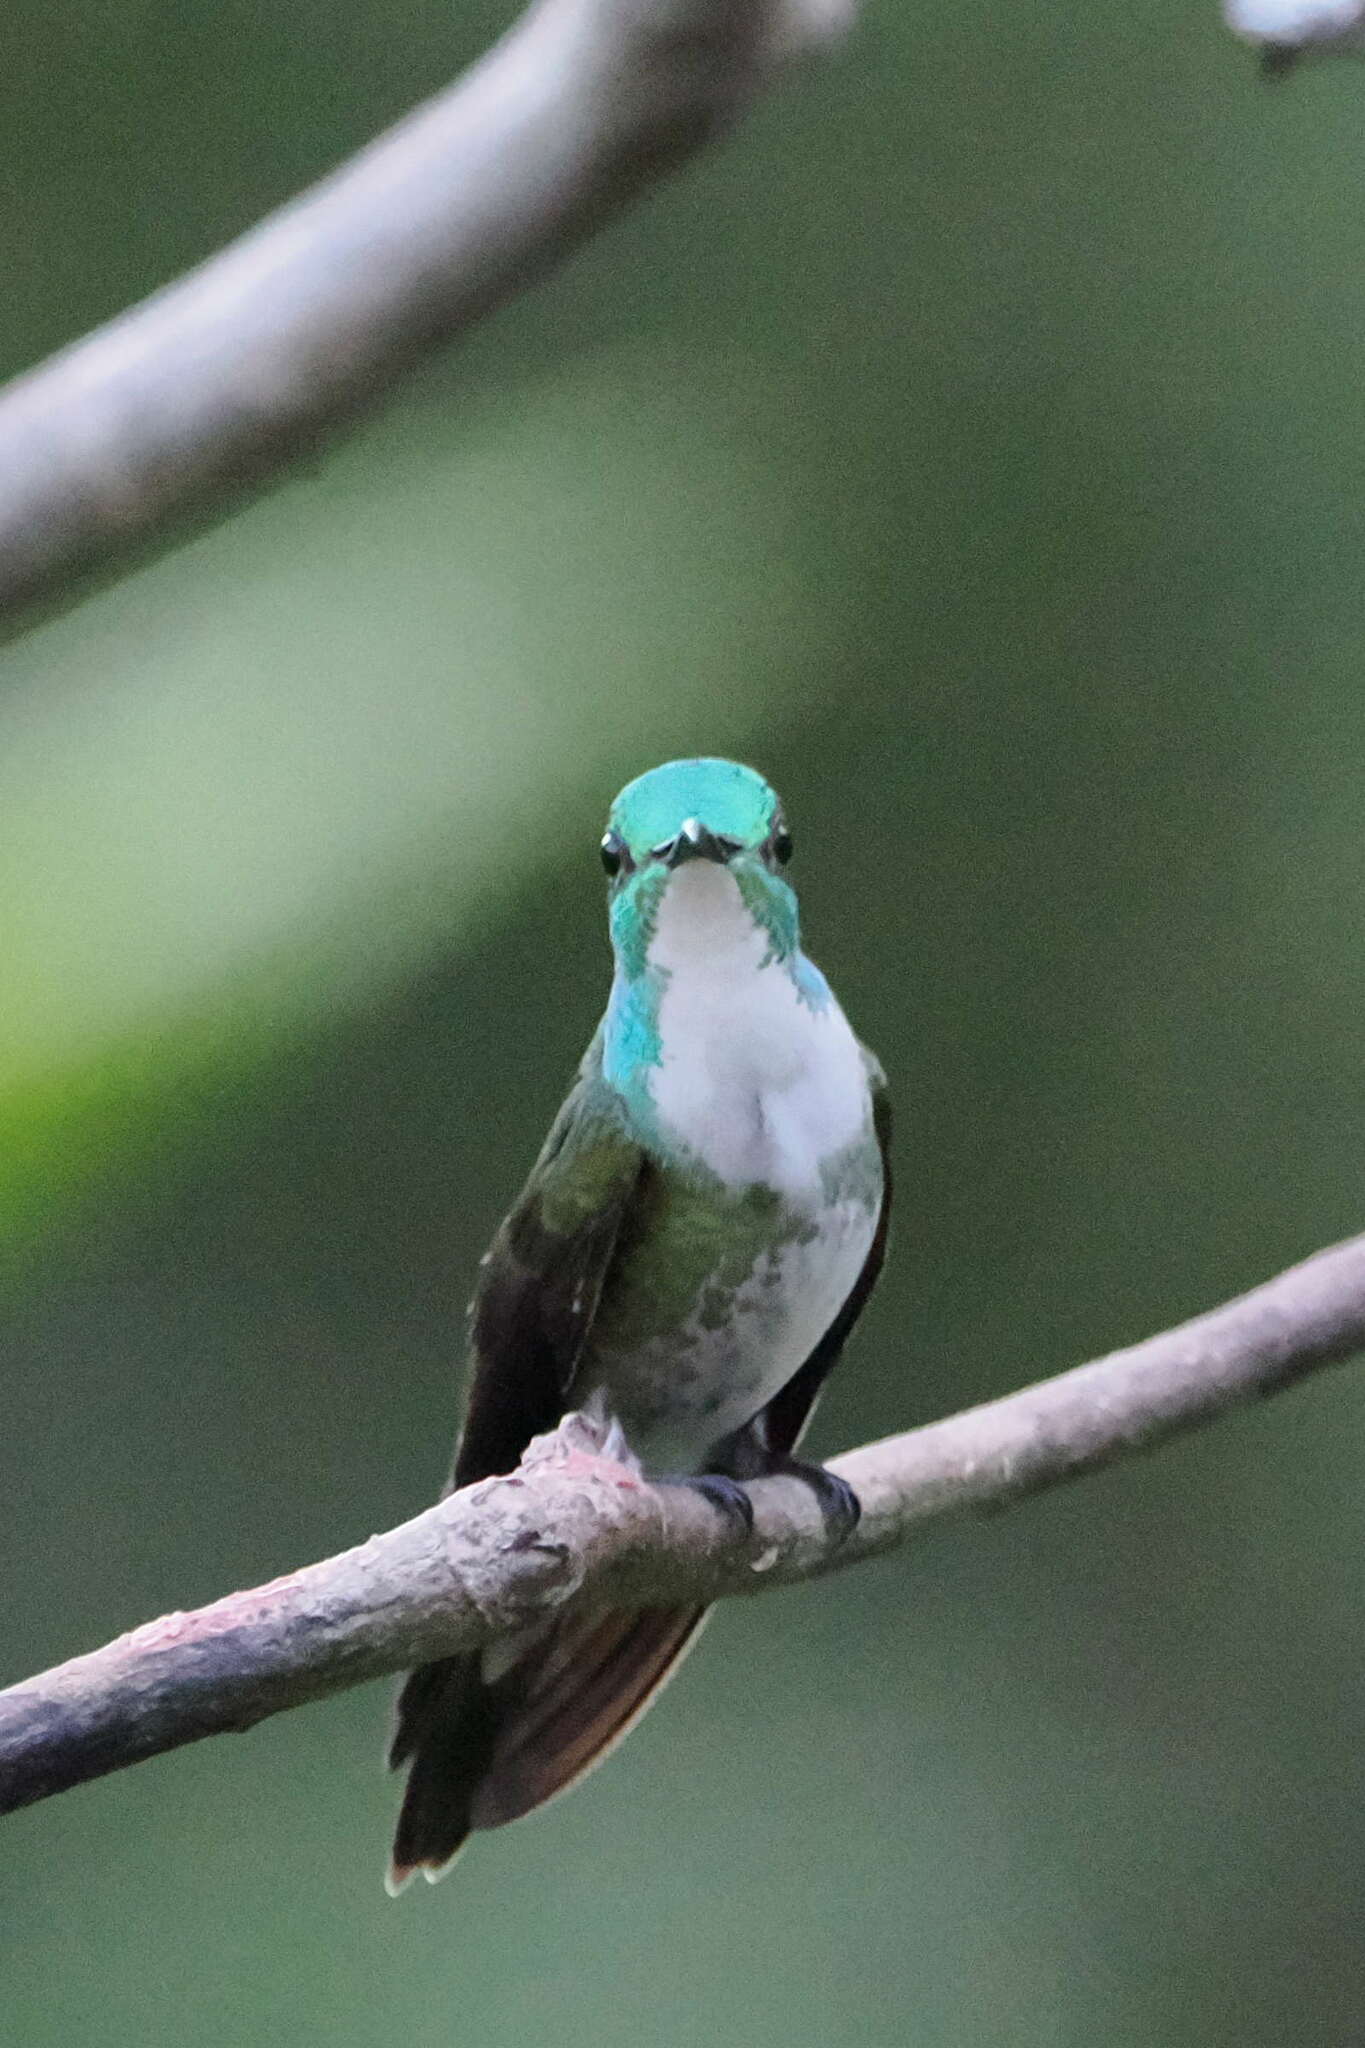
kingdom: Animalia
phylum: Chordata
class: Aves
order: Apodiformes
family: Trochilidae
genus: Chrysuronia
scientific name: Chrysuronia brevirostris
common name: White-chested emerald
